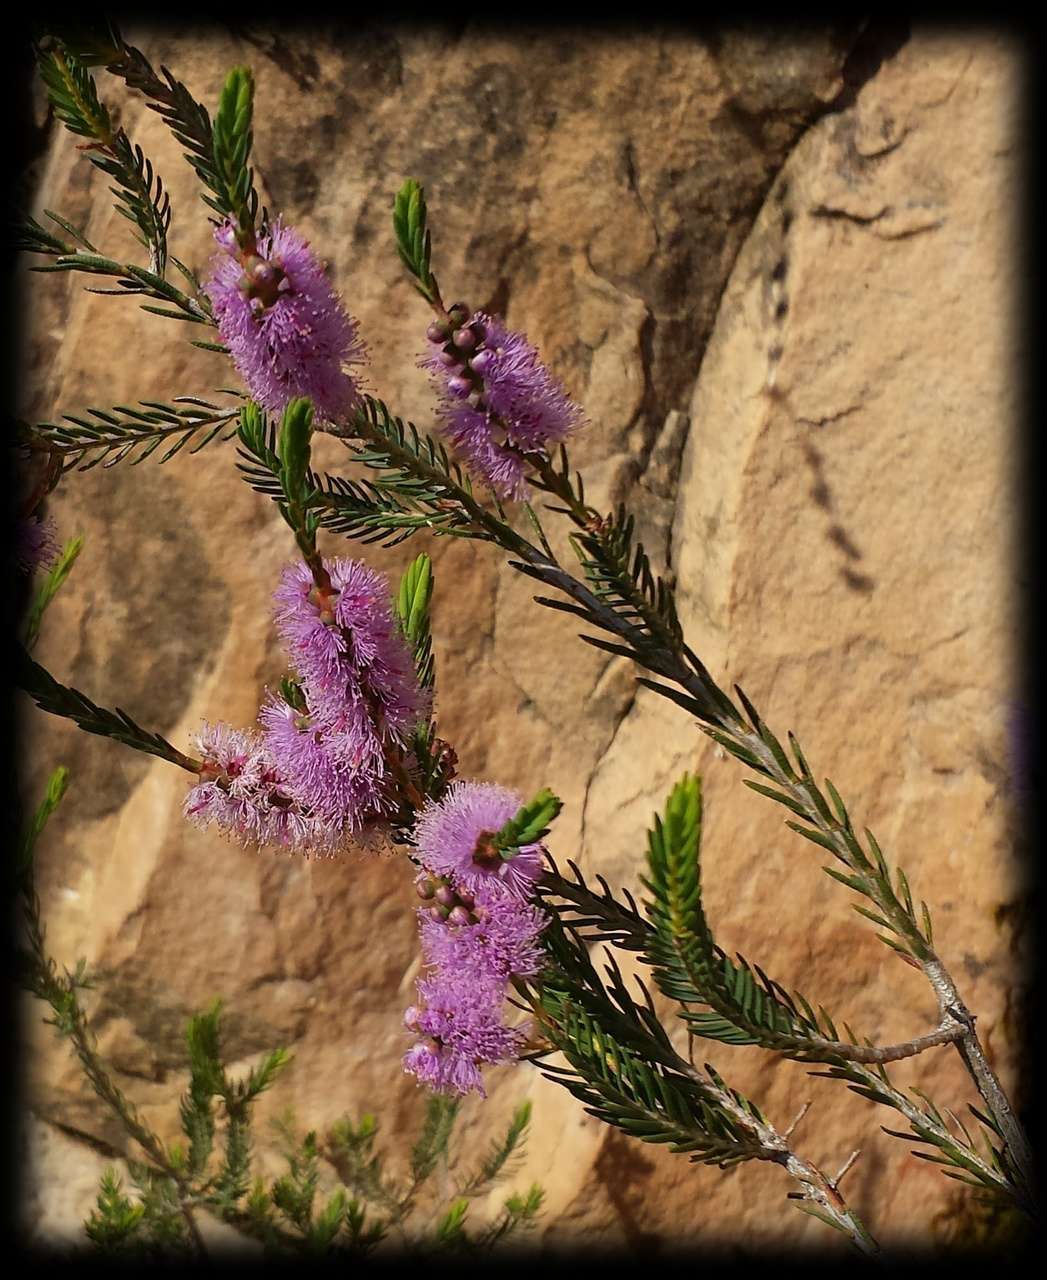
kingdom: Plantae
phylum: Tracheophyta
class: Magnoliopsida
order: Myrtales
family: Myrtaceae
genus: Melaleuca
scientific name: Melaleuca decussata
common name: Cross-leaf honey myrtle
